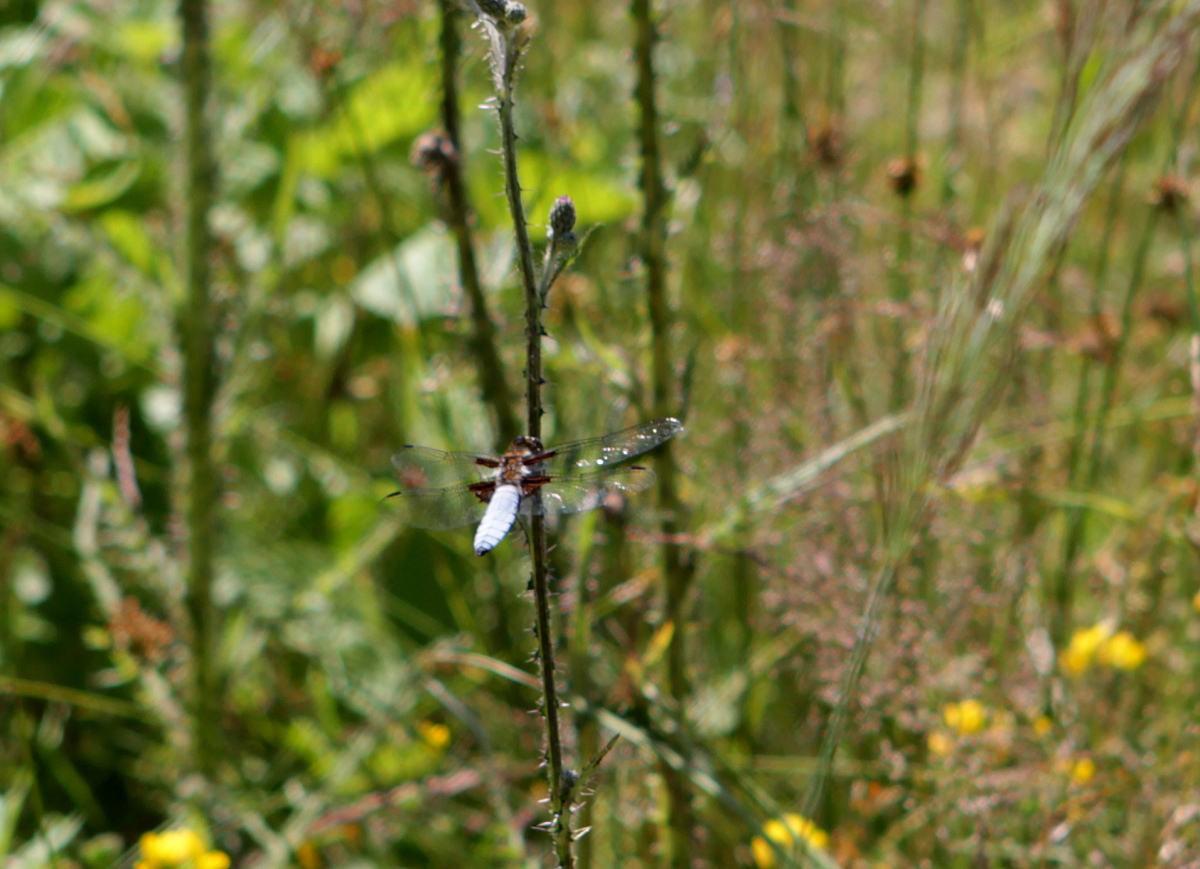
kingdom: Animalia
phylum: Arthropoda
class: Insecta
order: Odonata
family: Libellulidae
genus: Libellula
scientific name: Libellula depressa
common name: Broad-bodied chaser
